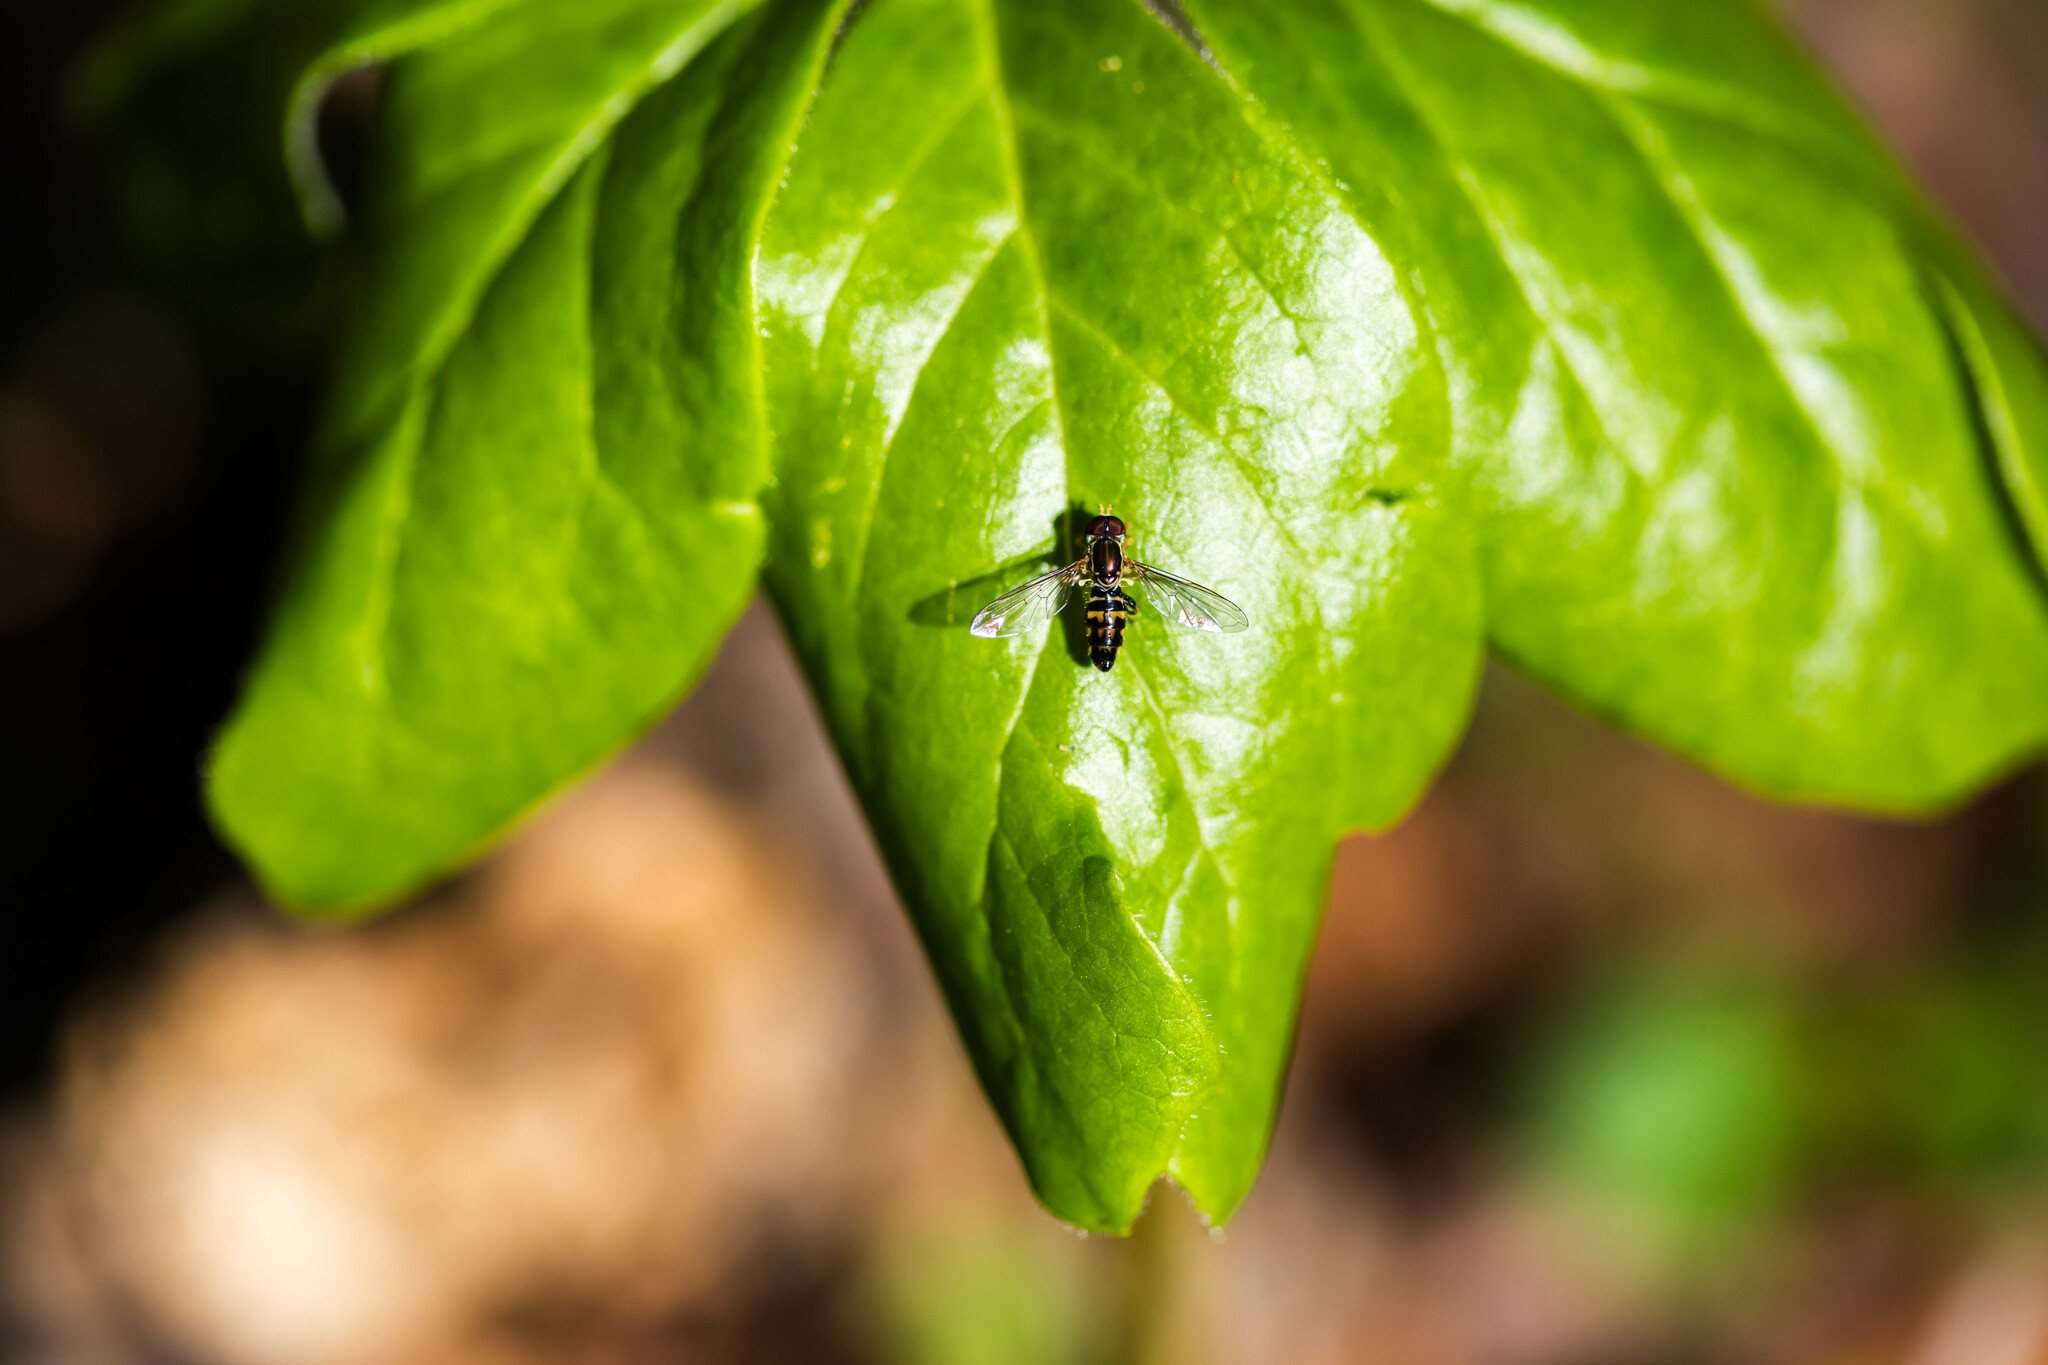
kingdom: Animalia
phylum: Arthropoda
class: Insecta
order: Diptera
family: Syrphidae
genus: Toxomerus
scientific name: Toxomerus geminatus
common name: Eastern calligrapher
